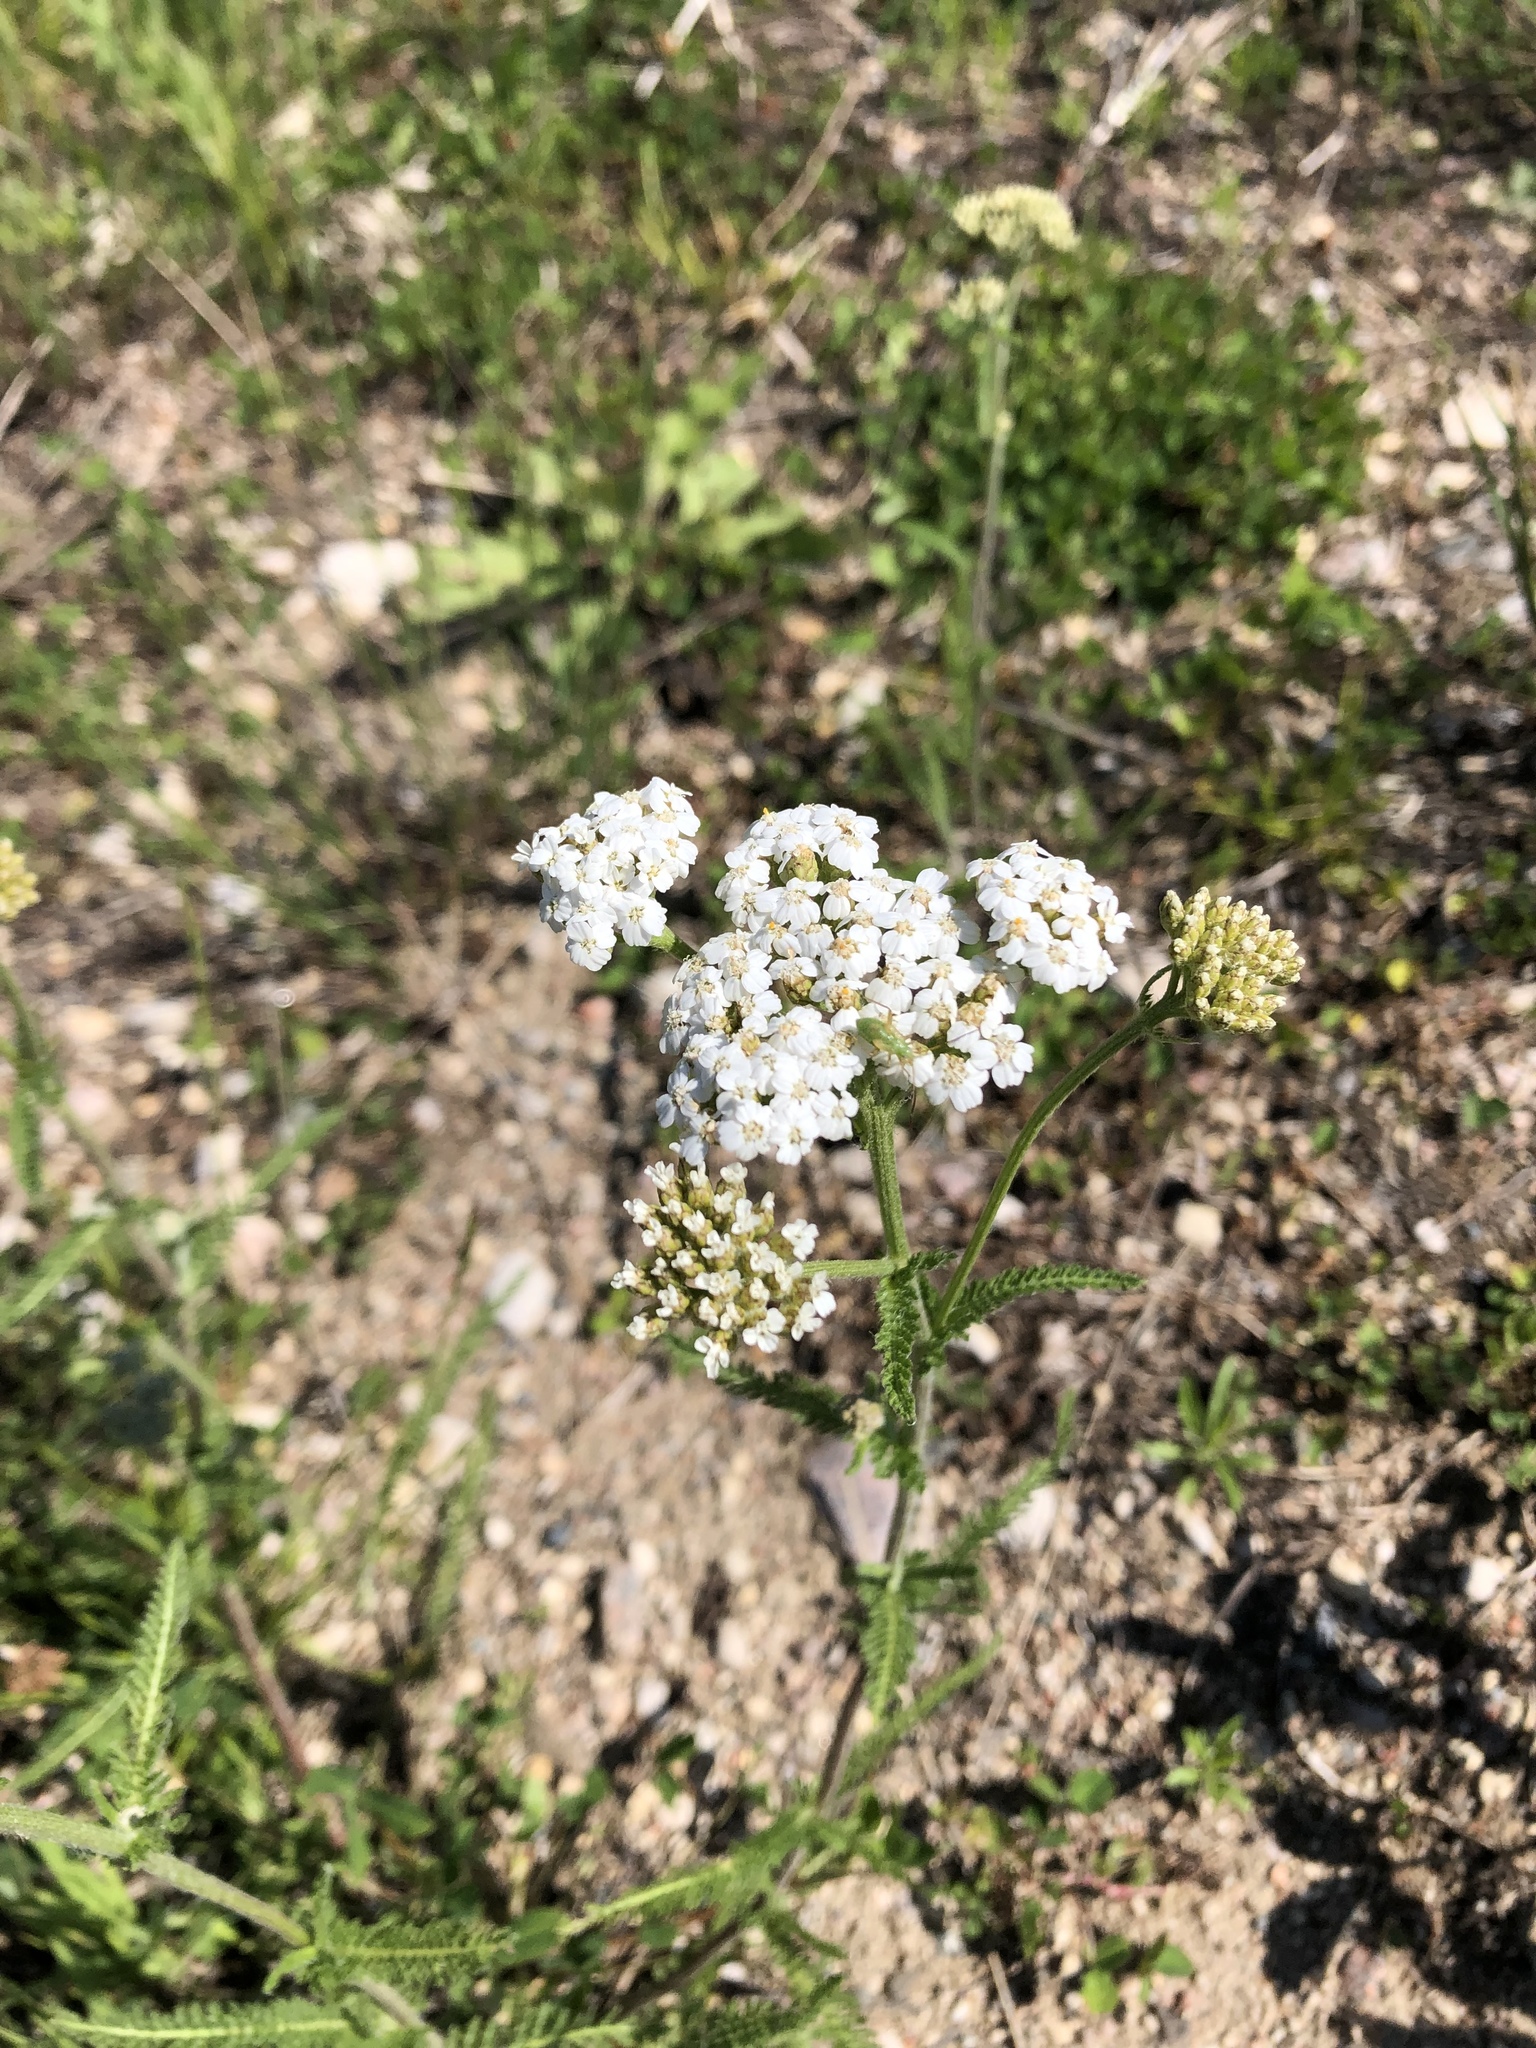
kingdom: Plantae
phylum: Tracheophyta
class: Magnoliopsida
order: Asterales
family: Asteraceae
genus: Achillea
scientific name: Achillea millefolium
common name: Yarrow
